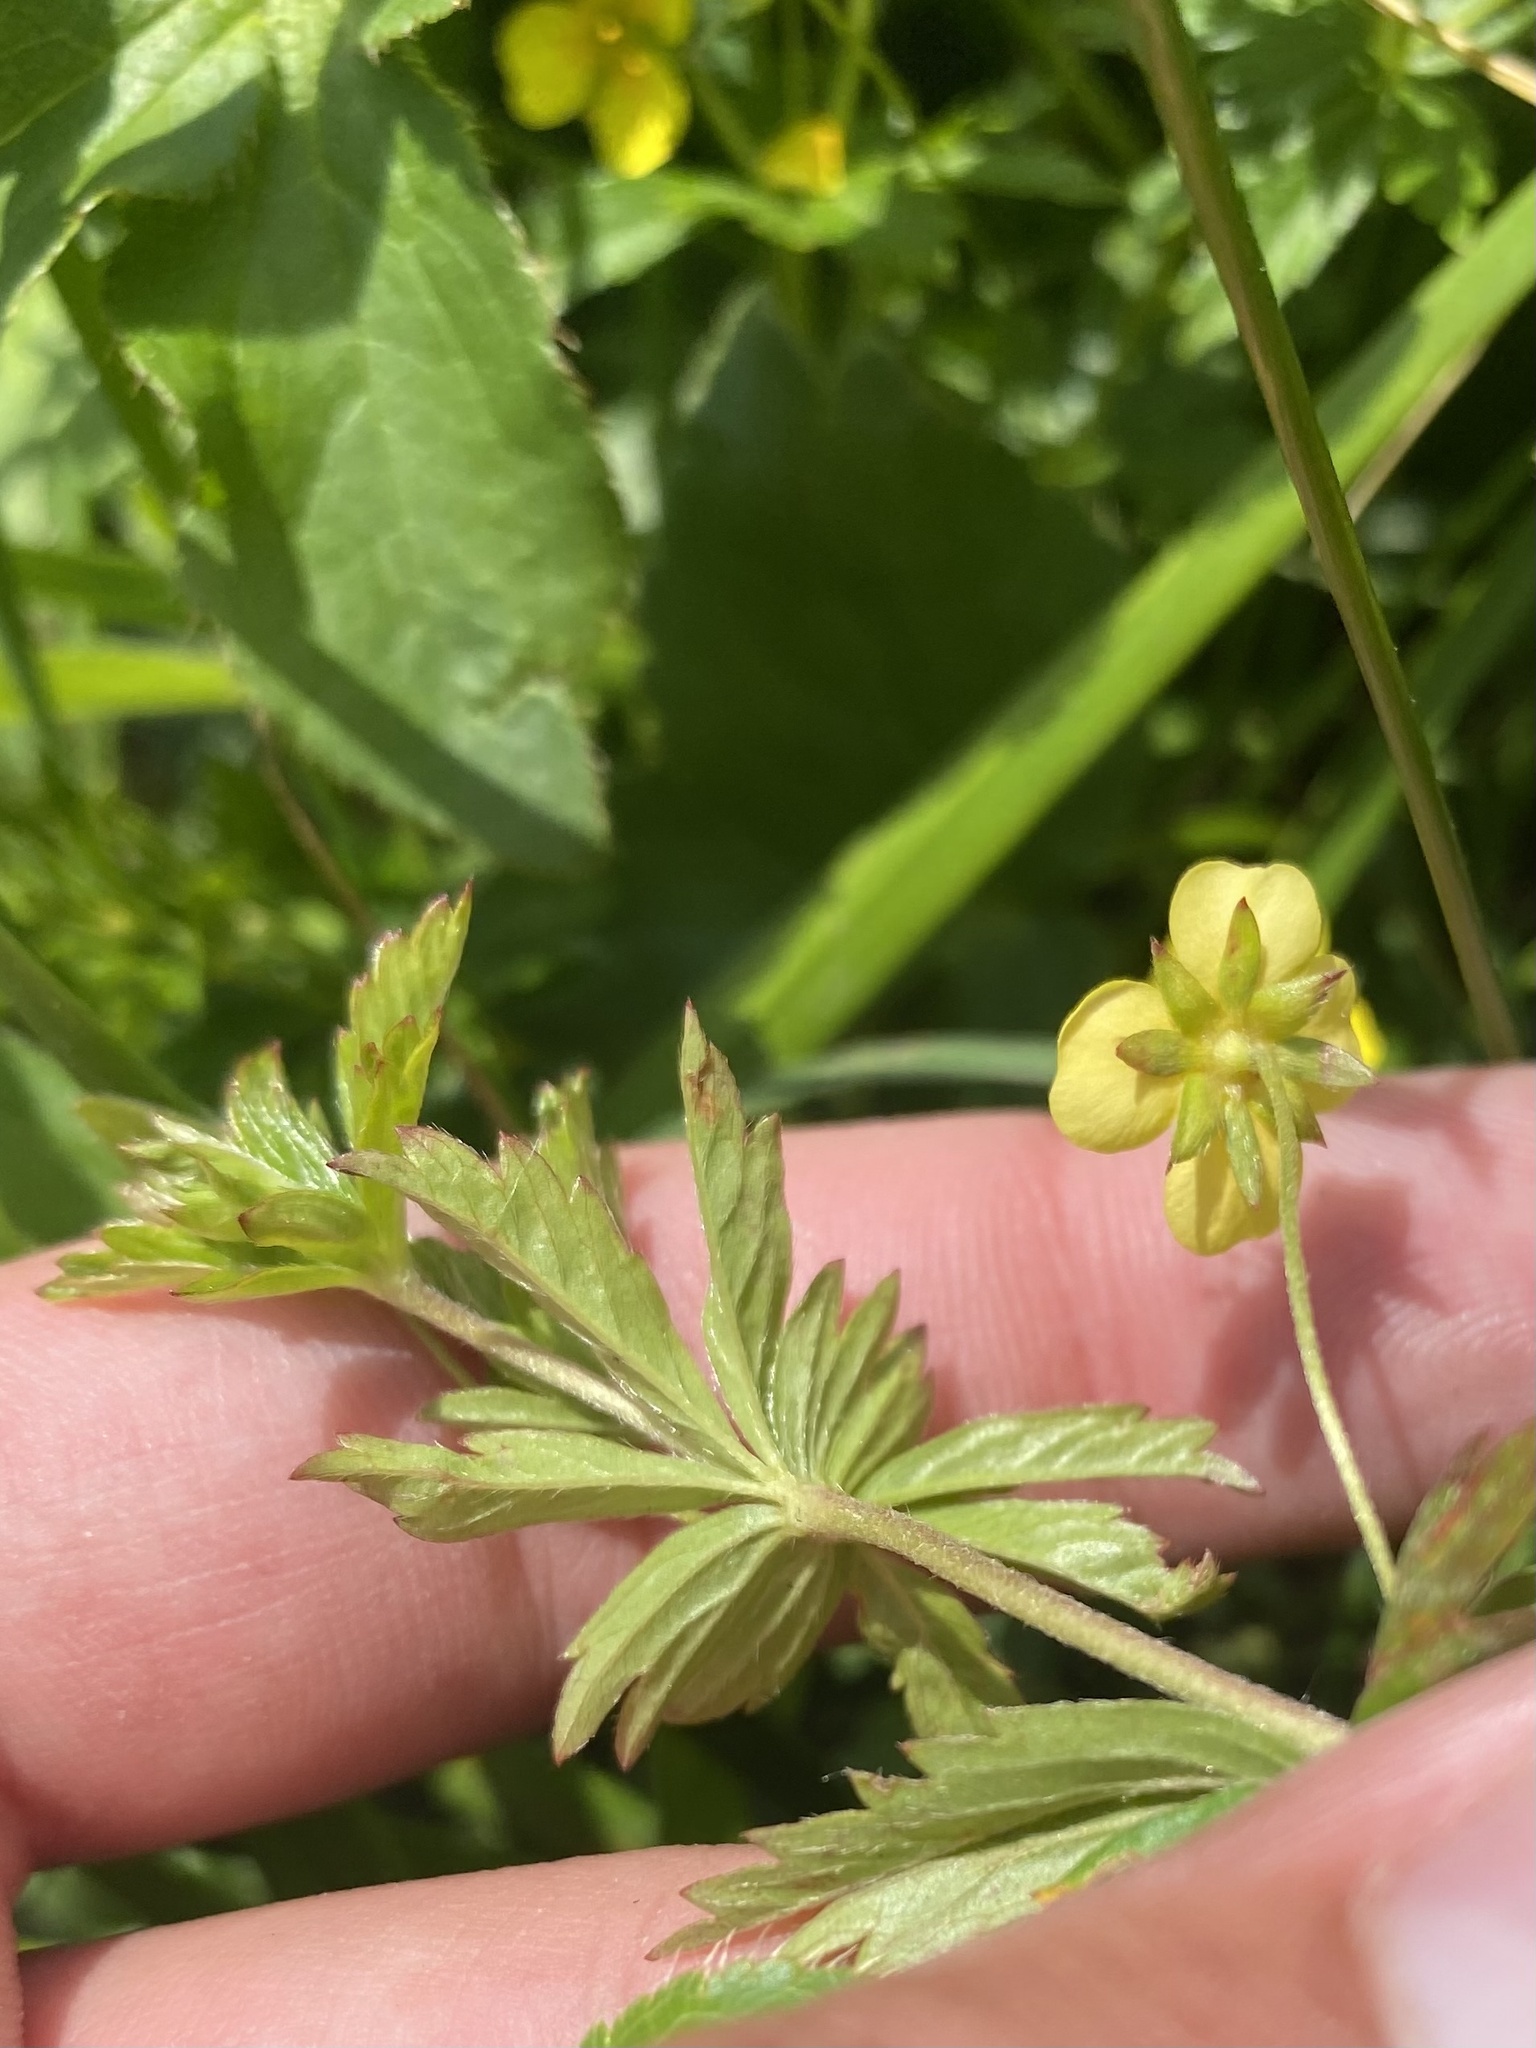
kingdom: Plantae
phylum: Tracheophyta
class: Magnoliopsida
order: Rosales
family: Rosaceae
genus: Potentilla
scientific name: Potentilla erecta
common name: Tormentil
